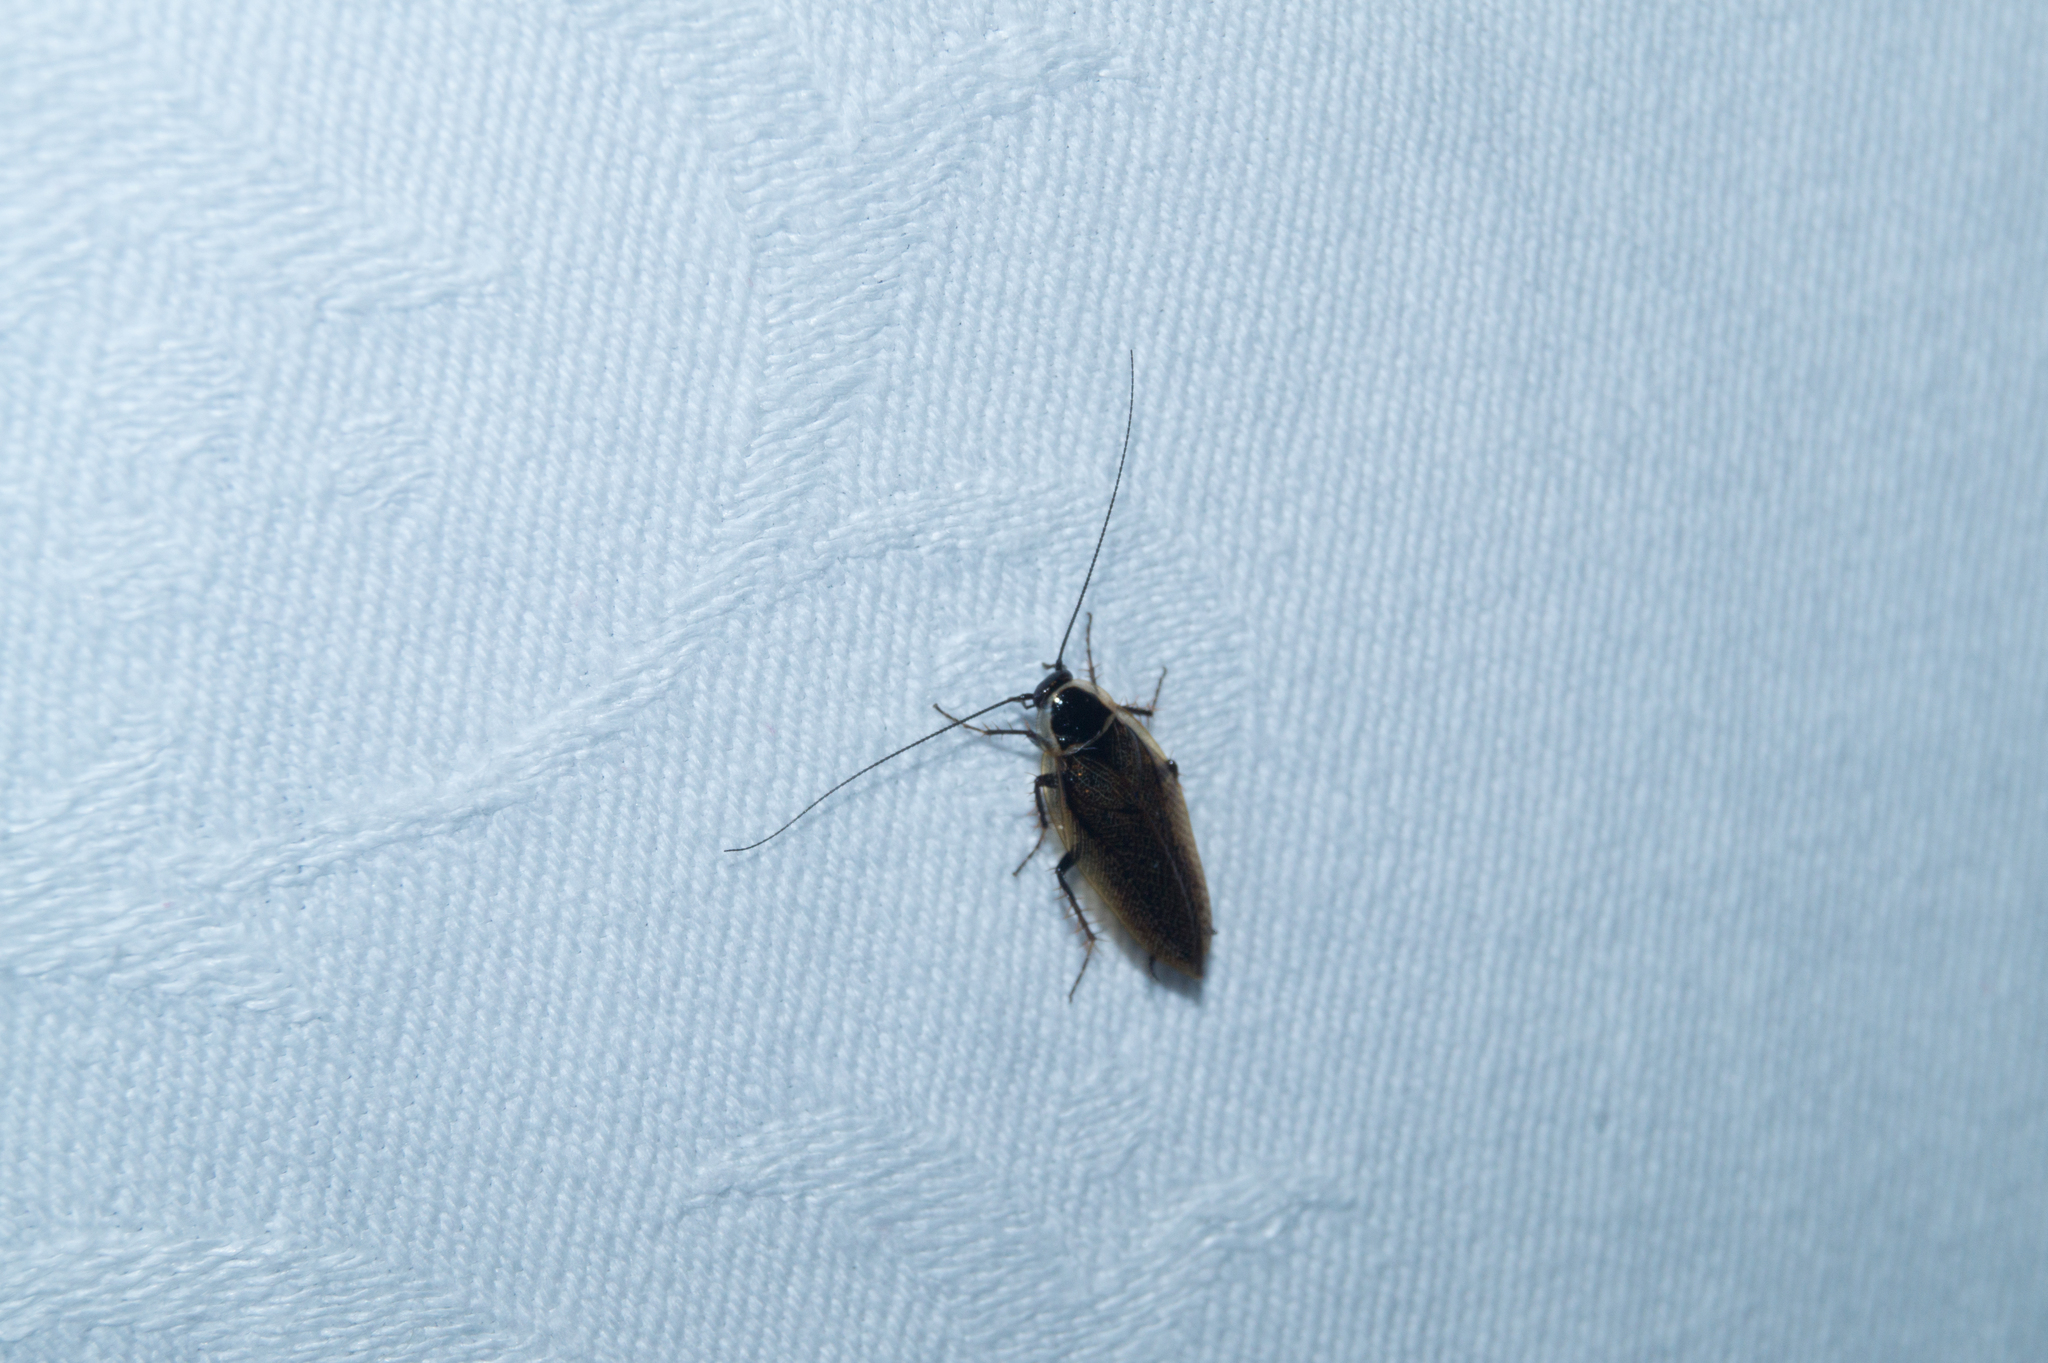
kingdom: Animalia
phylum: Arthropoda
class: Insecta
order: Blattodea
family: Ectobiidae
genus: Ectobius
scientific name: Ectobius sylvestris
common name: Forest cockroach
